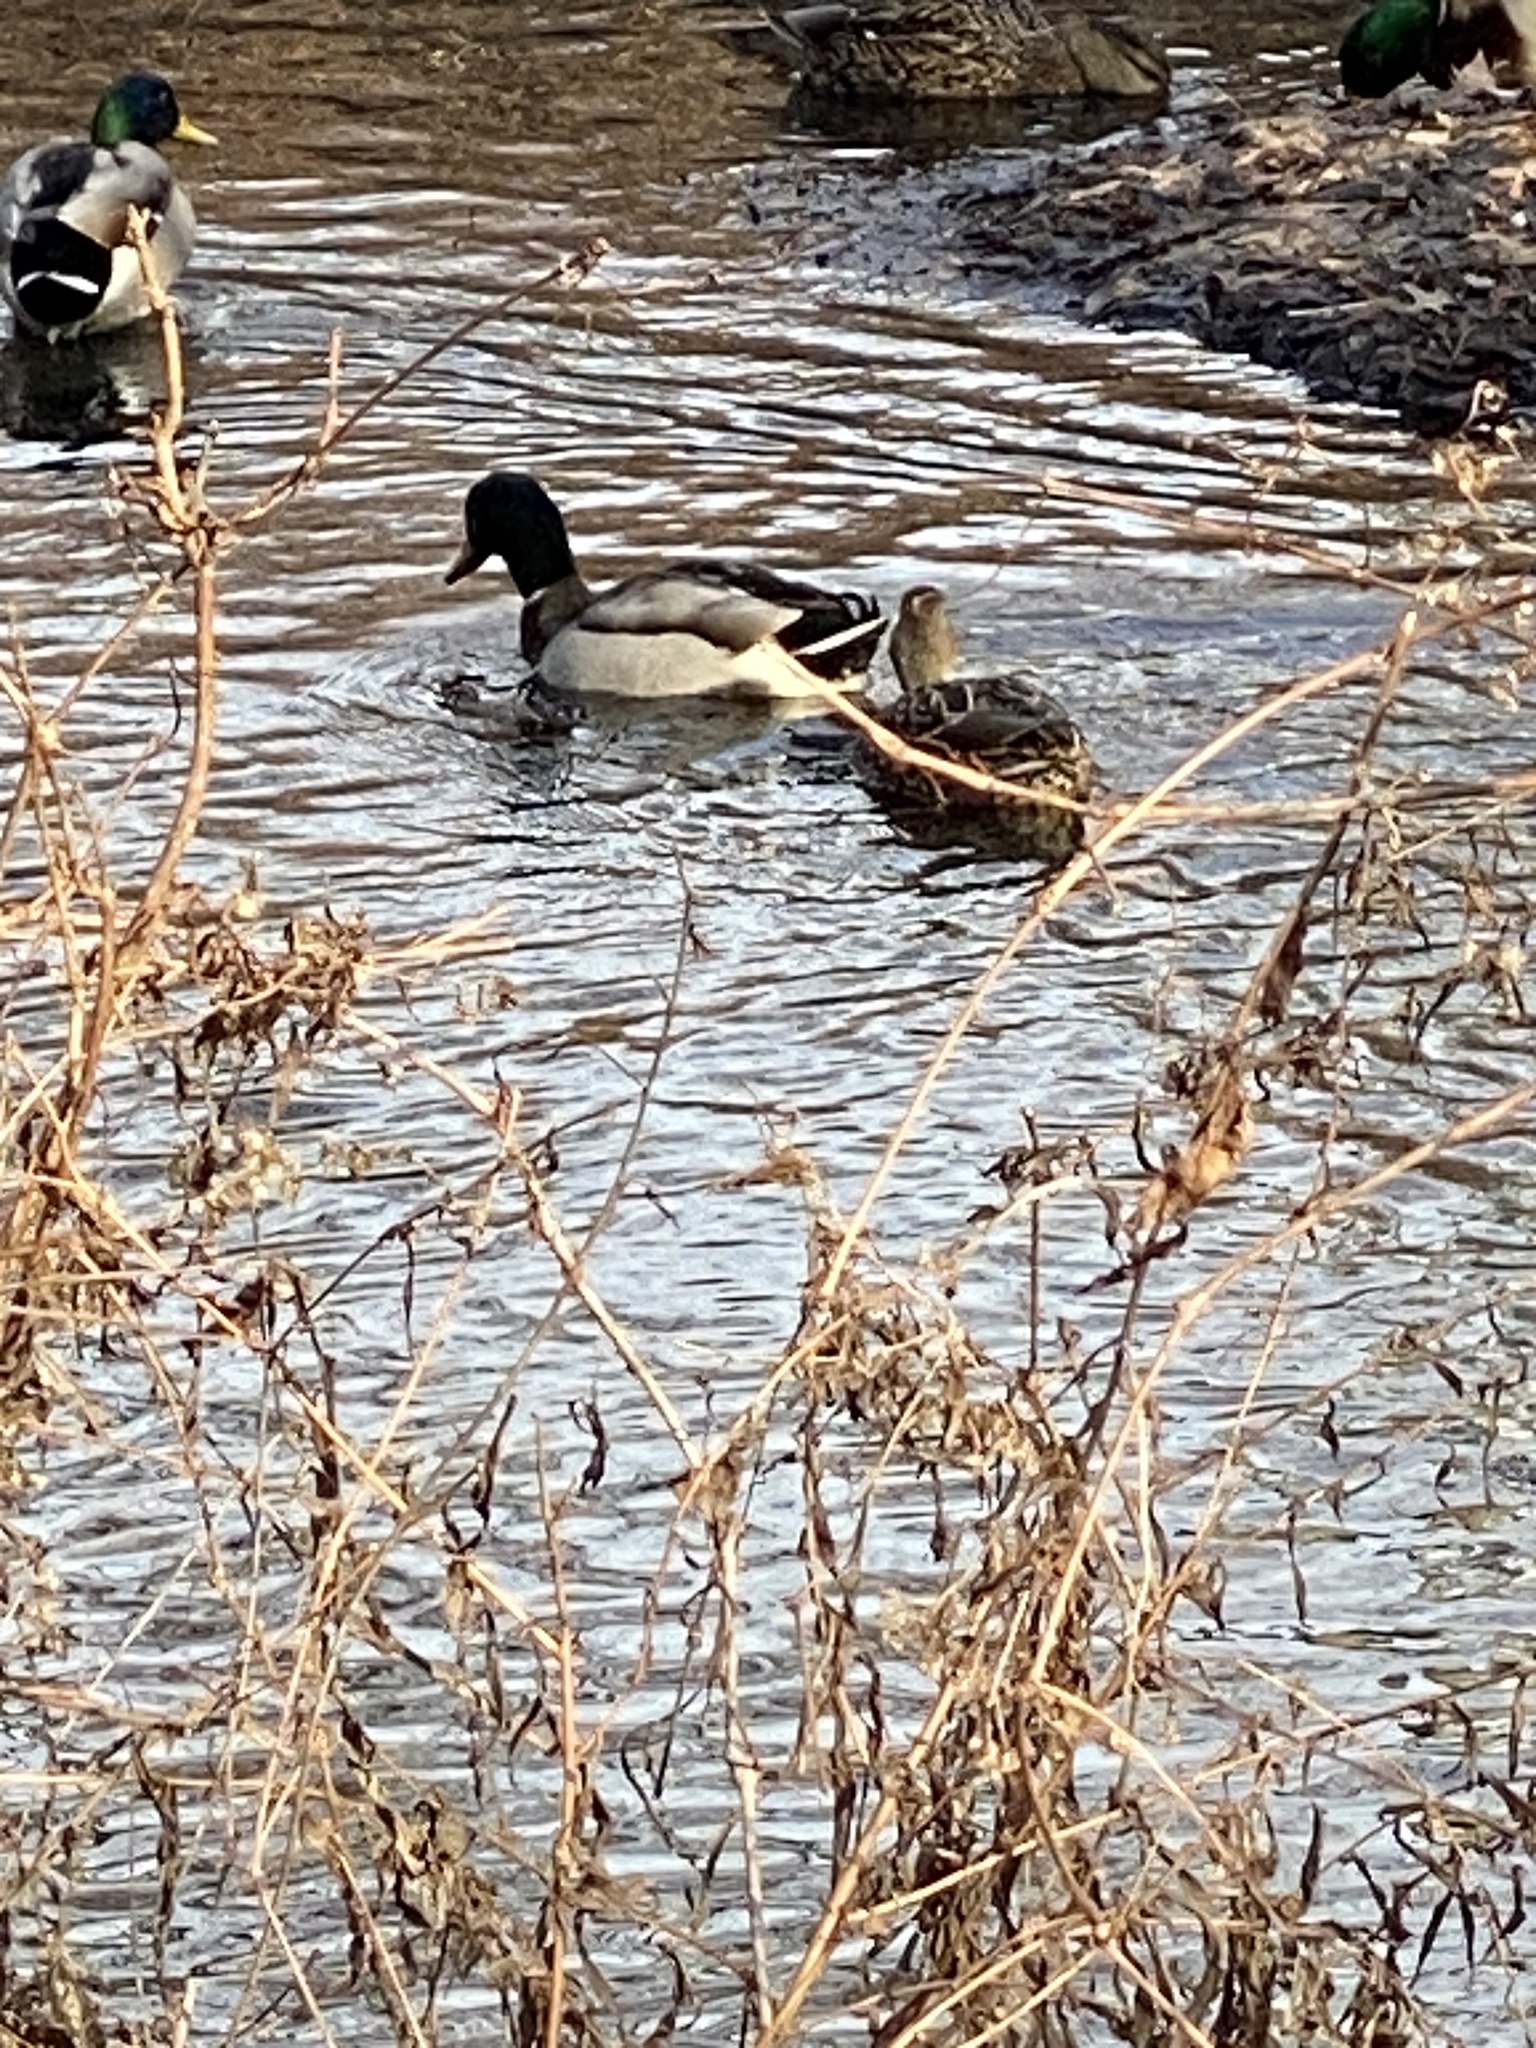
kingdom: Animalia
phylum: Chordata
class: Aves
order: Anseriformes
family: Anatidae
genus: Anas
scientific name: Anas platyrhynchos
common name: Mallard
